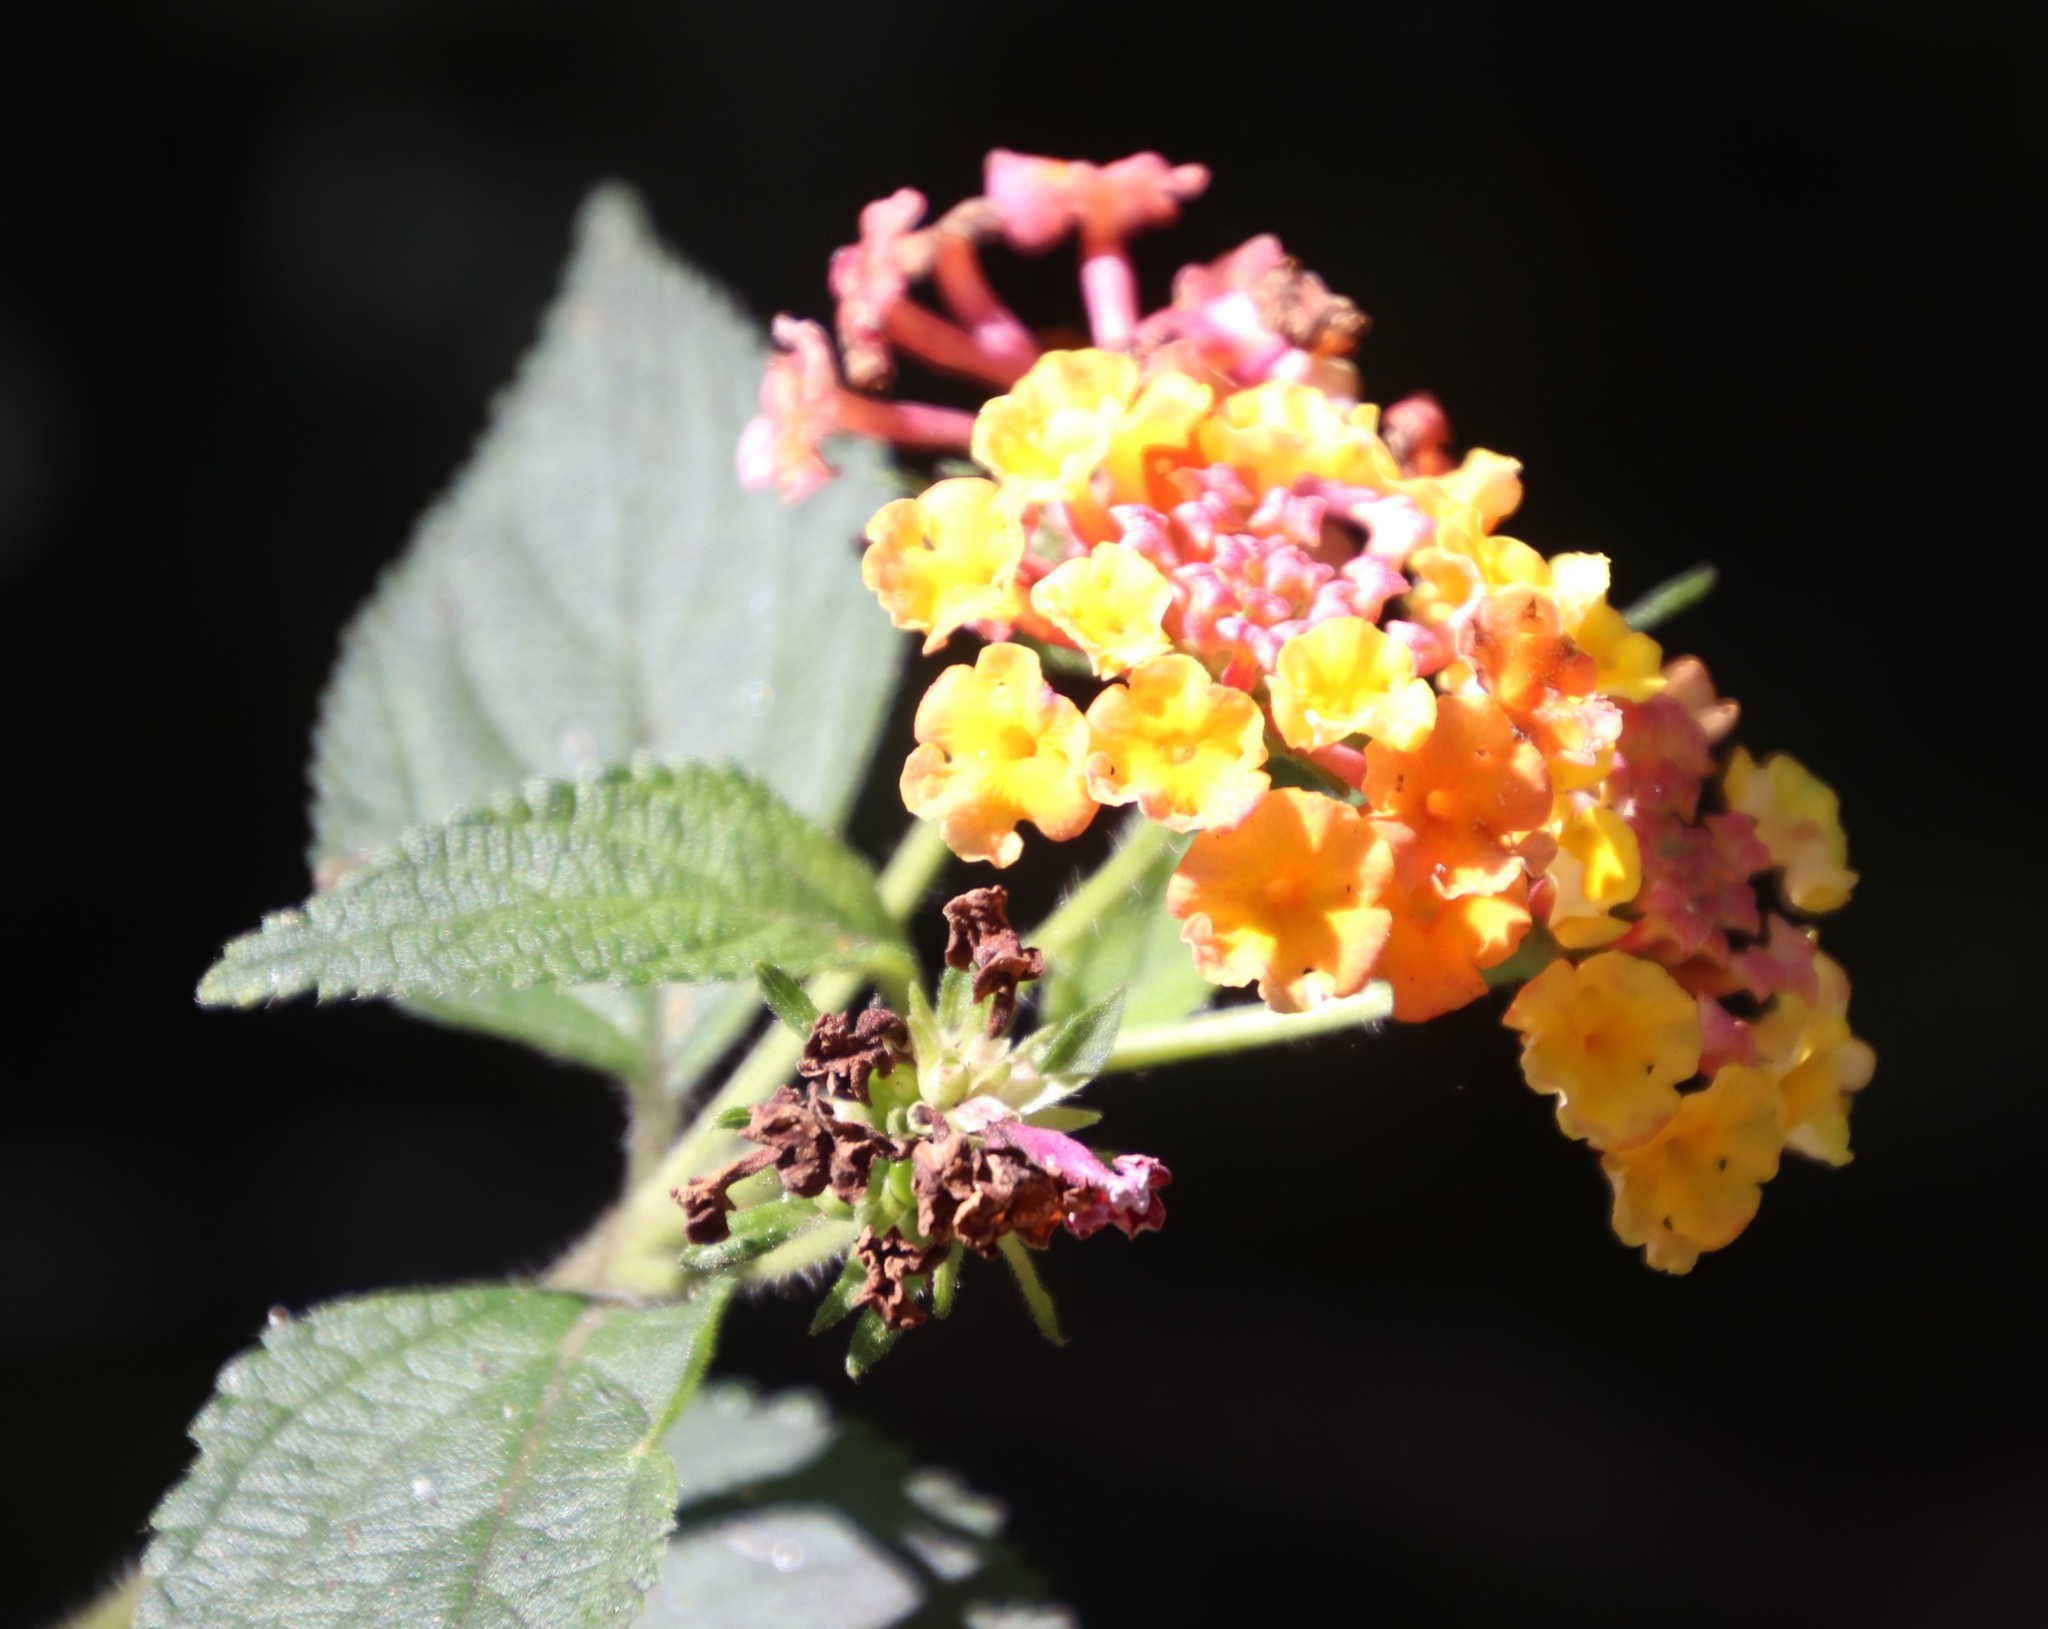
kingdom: Plantae
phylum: Tracheophyta
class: Magnoliopsida
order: Lamiales
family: Verbenaceae
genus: Lantana
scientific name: Lantana camara
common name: Lantana
